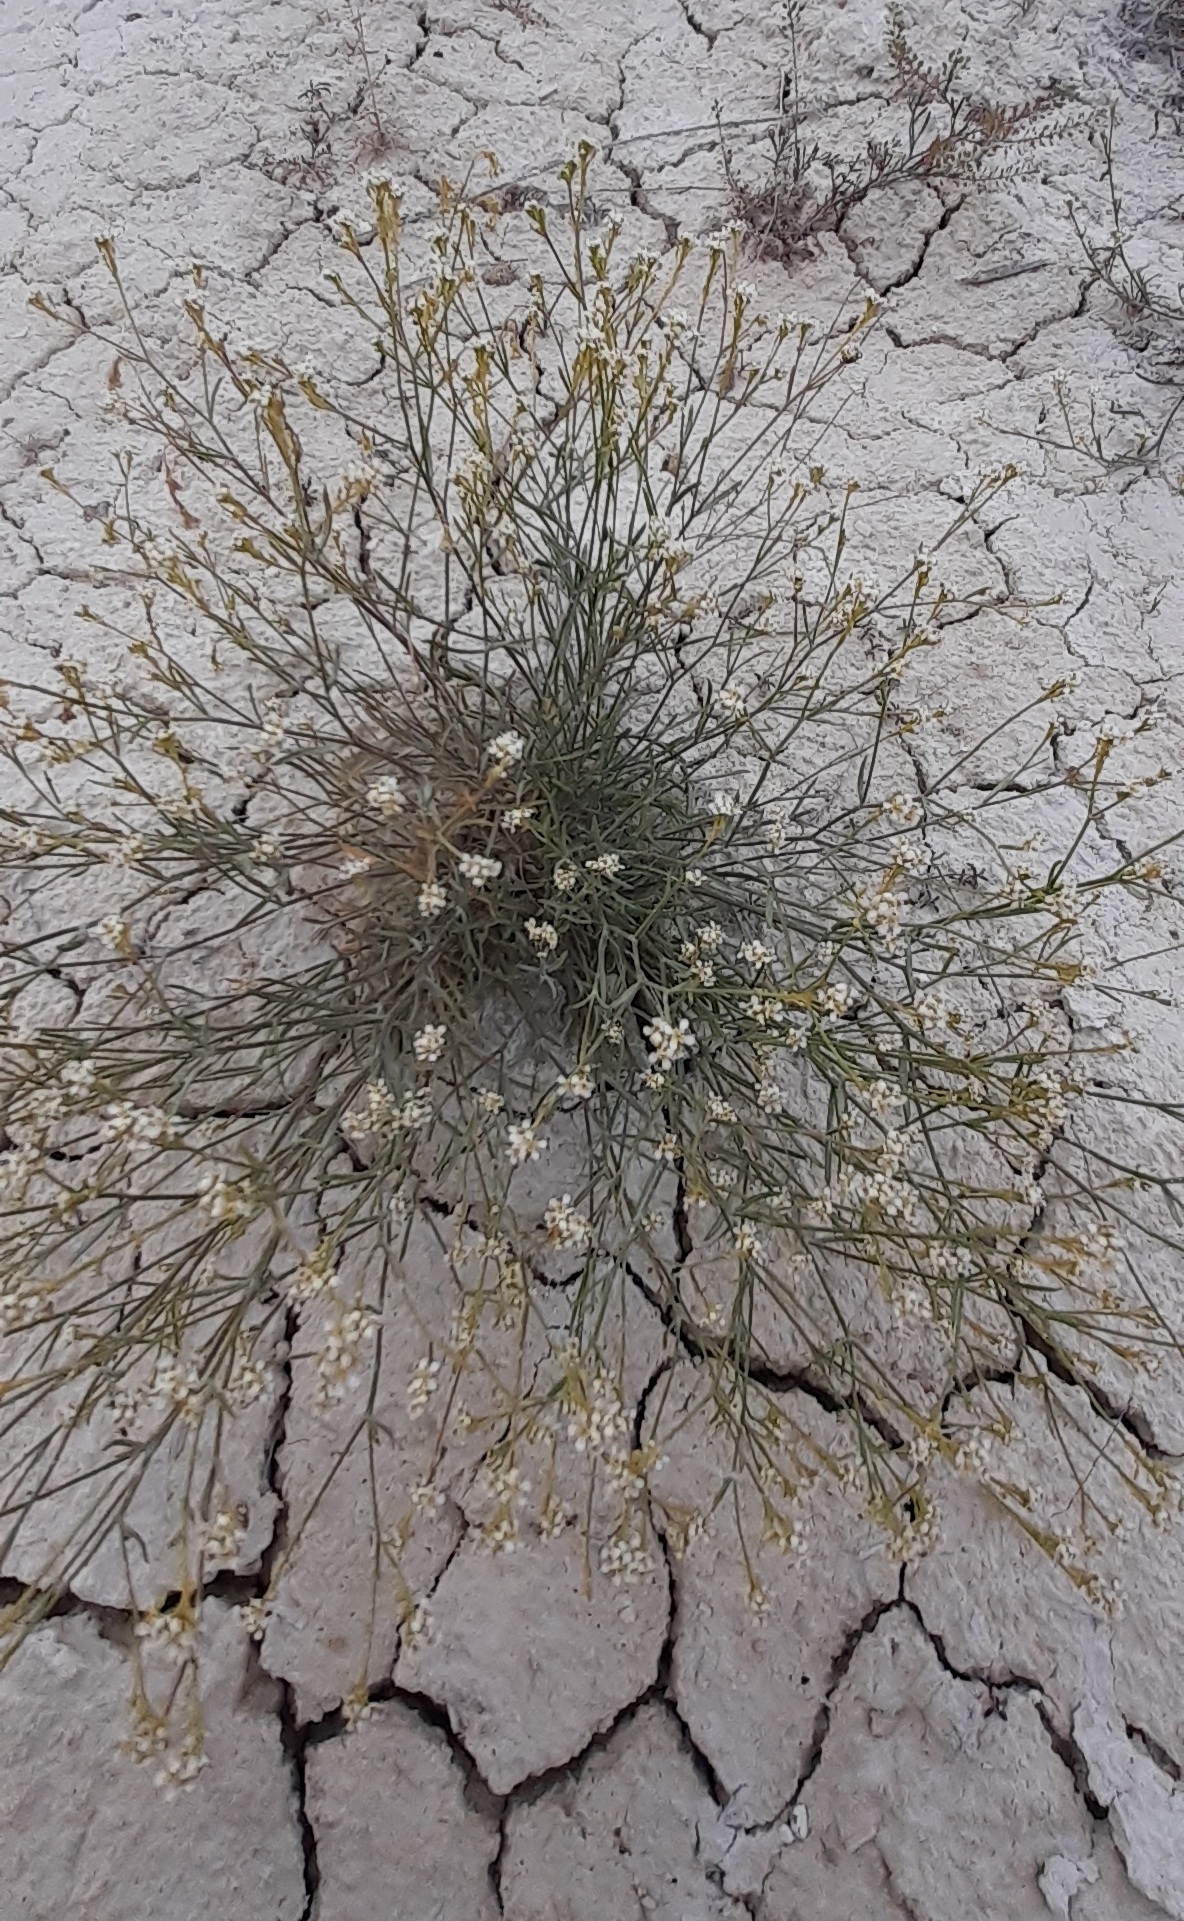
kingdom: Plantae
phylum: Tracheophyta
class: Magnoliopsida
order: Brassicales
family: Brassicaceae
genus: Lepidium
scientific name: Lepidium meyeri
